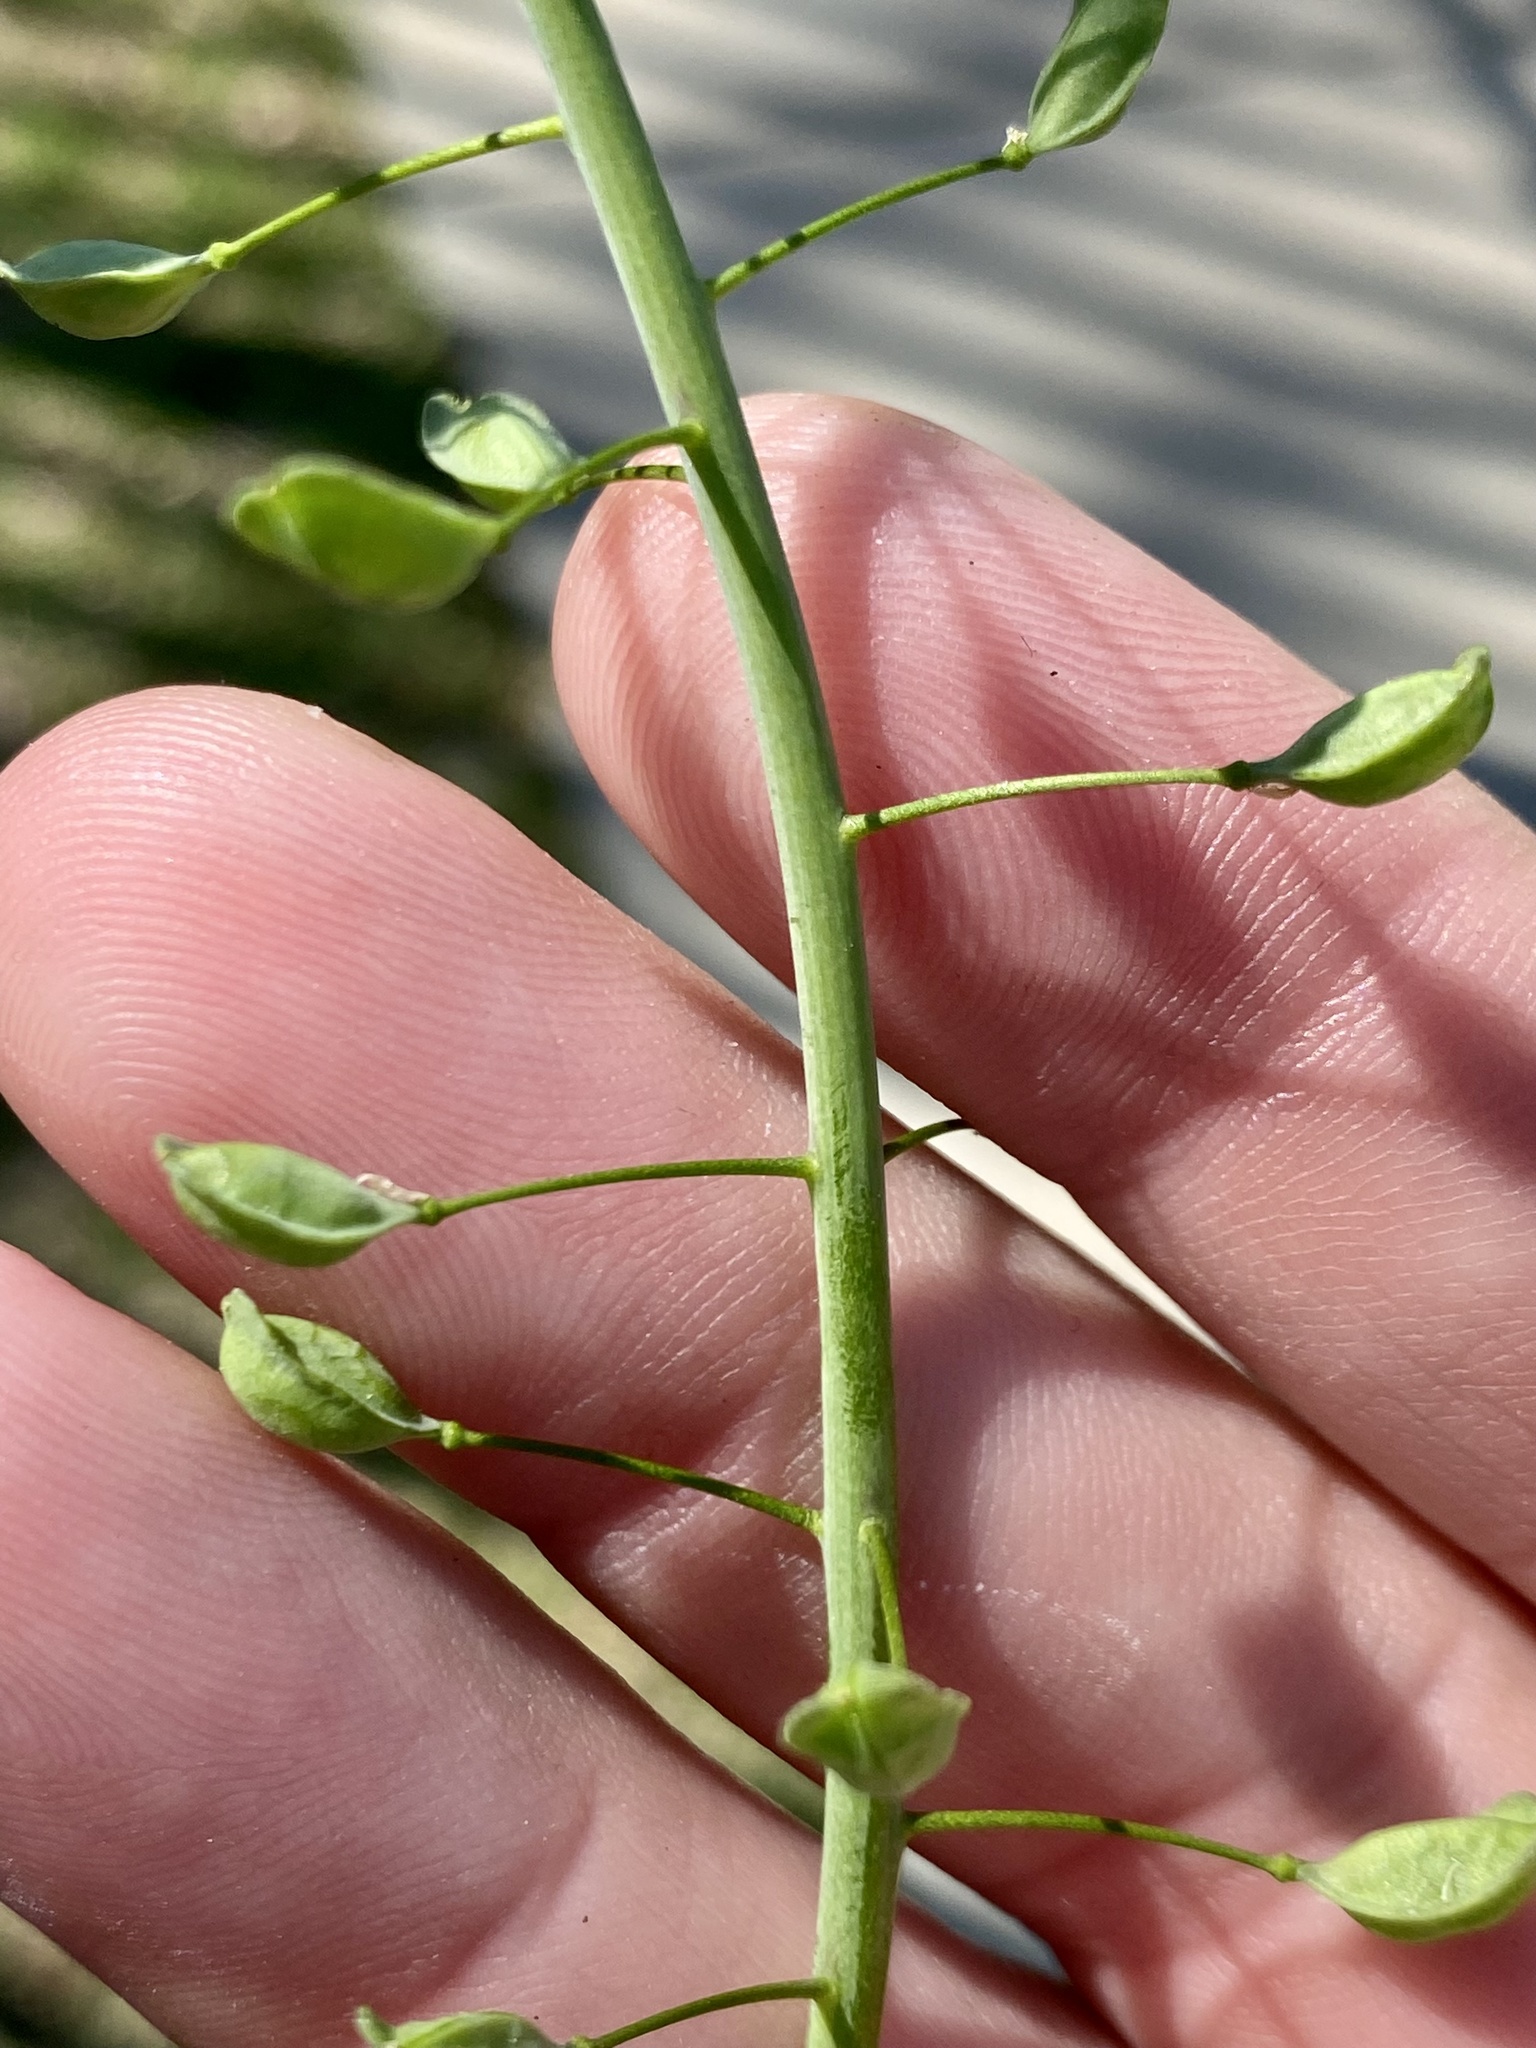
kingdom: Plantae
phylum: Tracheophyta
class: Magnoliopsida
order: Brassicales
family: Brassicaceae
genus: Mummenhoffia
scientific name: Mummenhoffia alliacea
